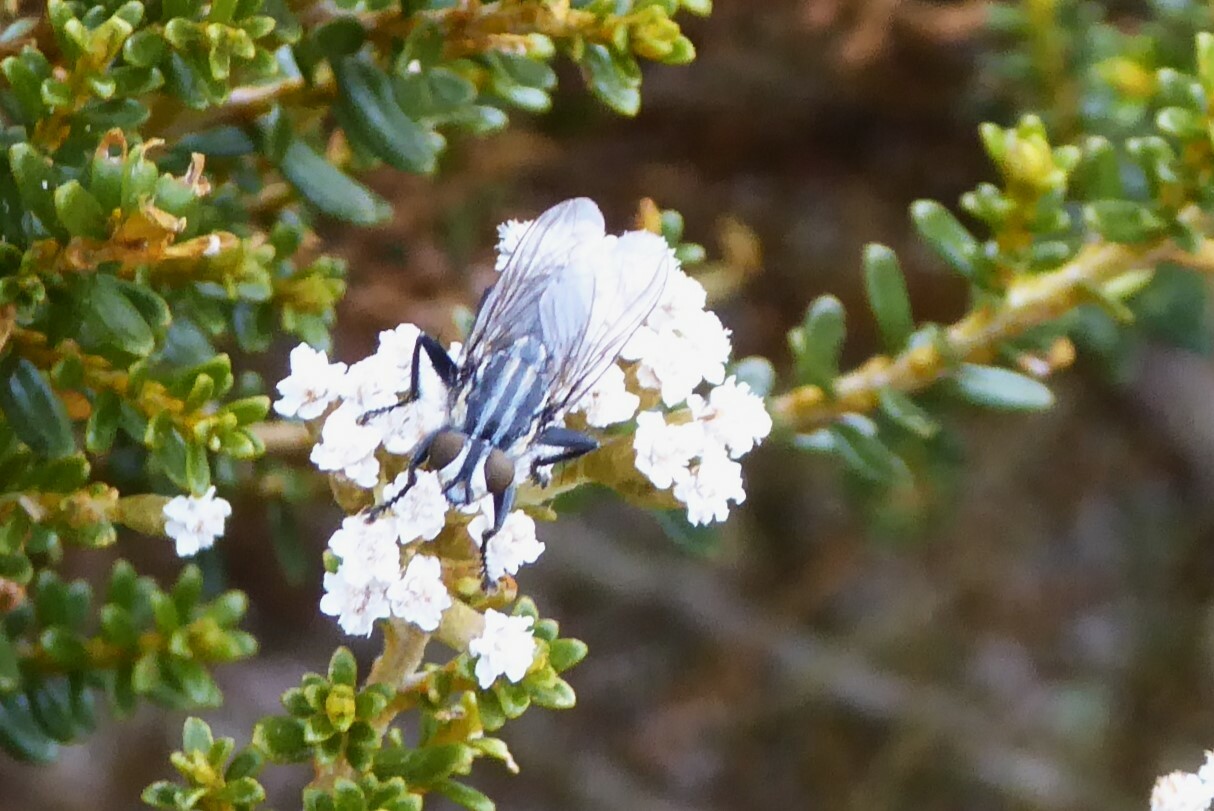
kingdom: Animalia
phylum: Arthropoda
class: Insecta
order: Diptera
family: Sarcophagidae
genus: Oxysarcodexia
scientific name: Oxysarcodexia varia
